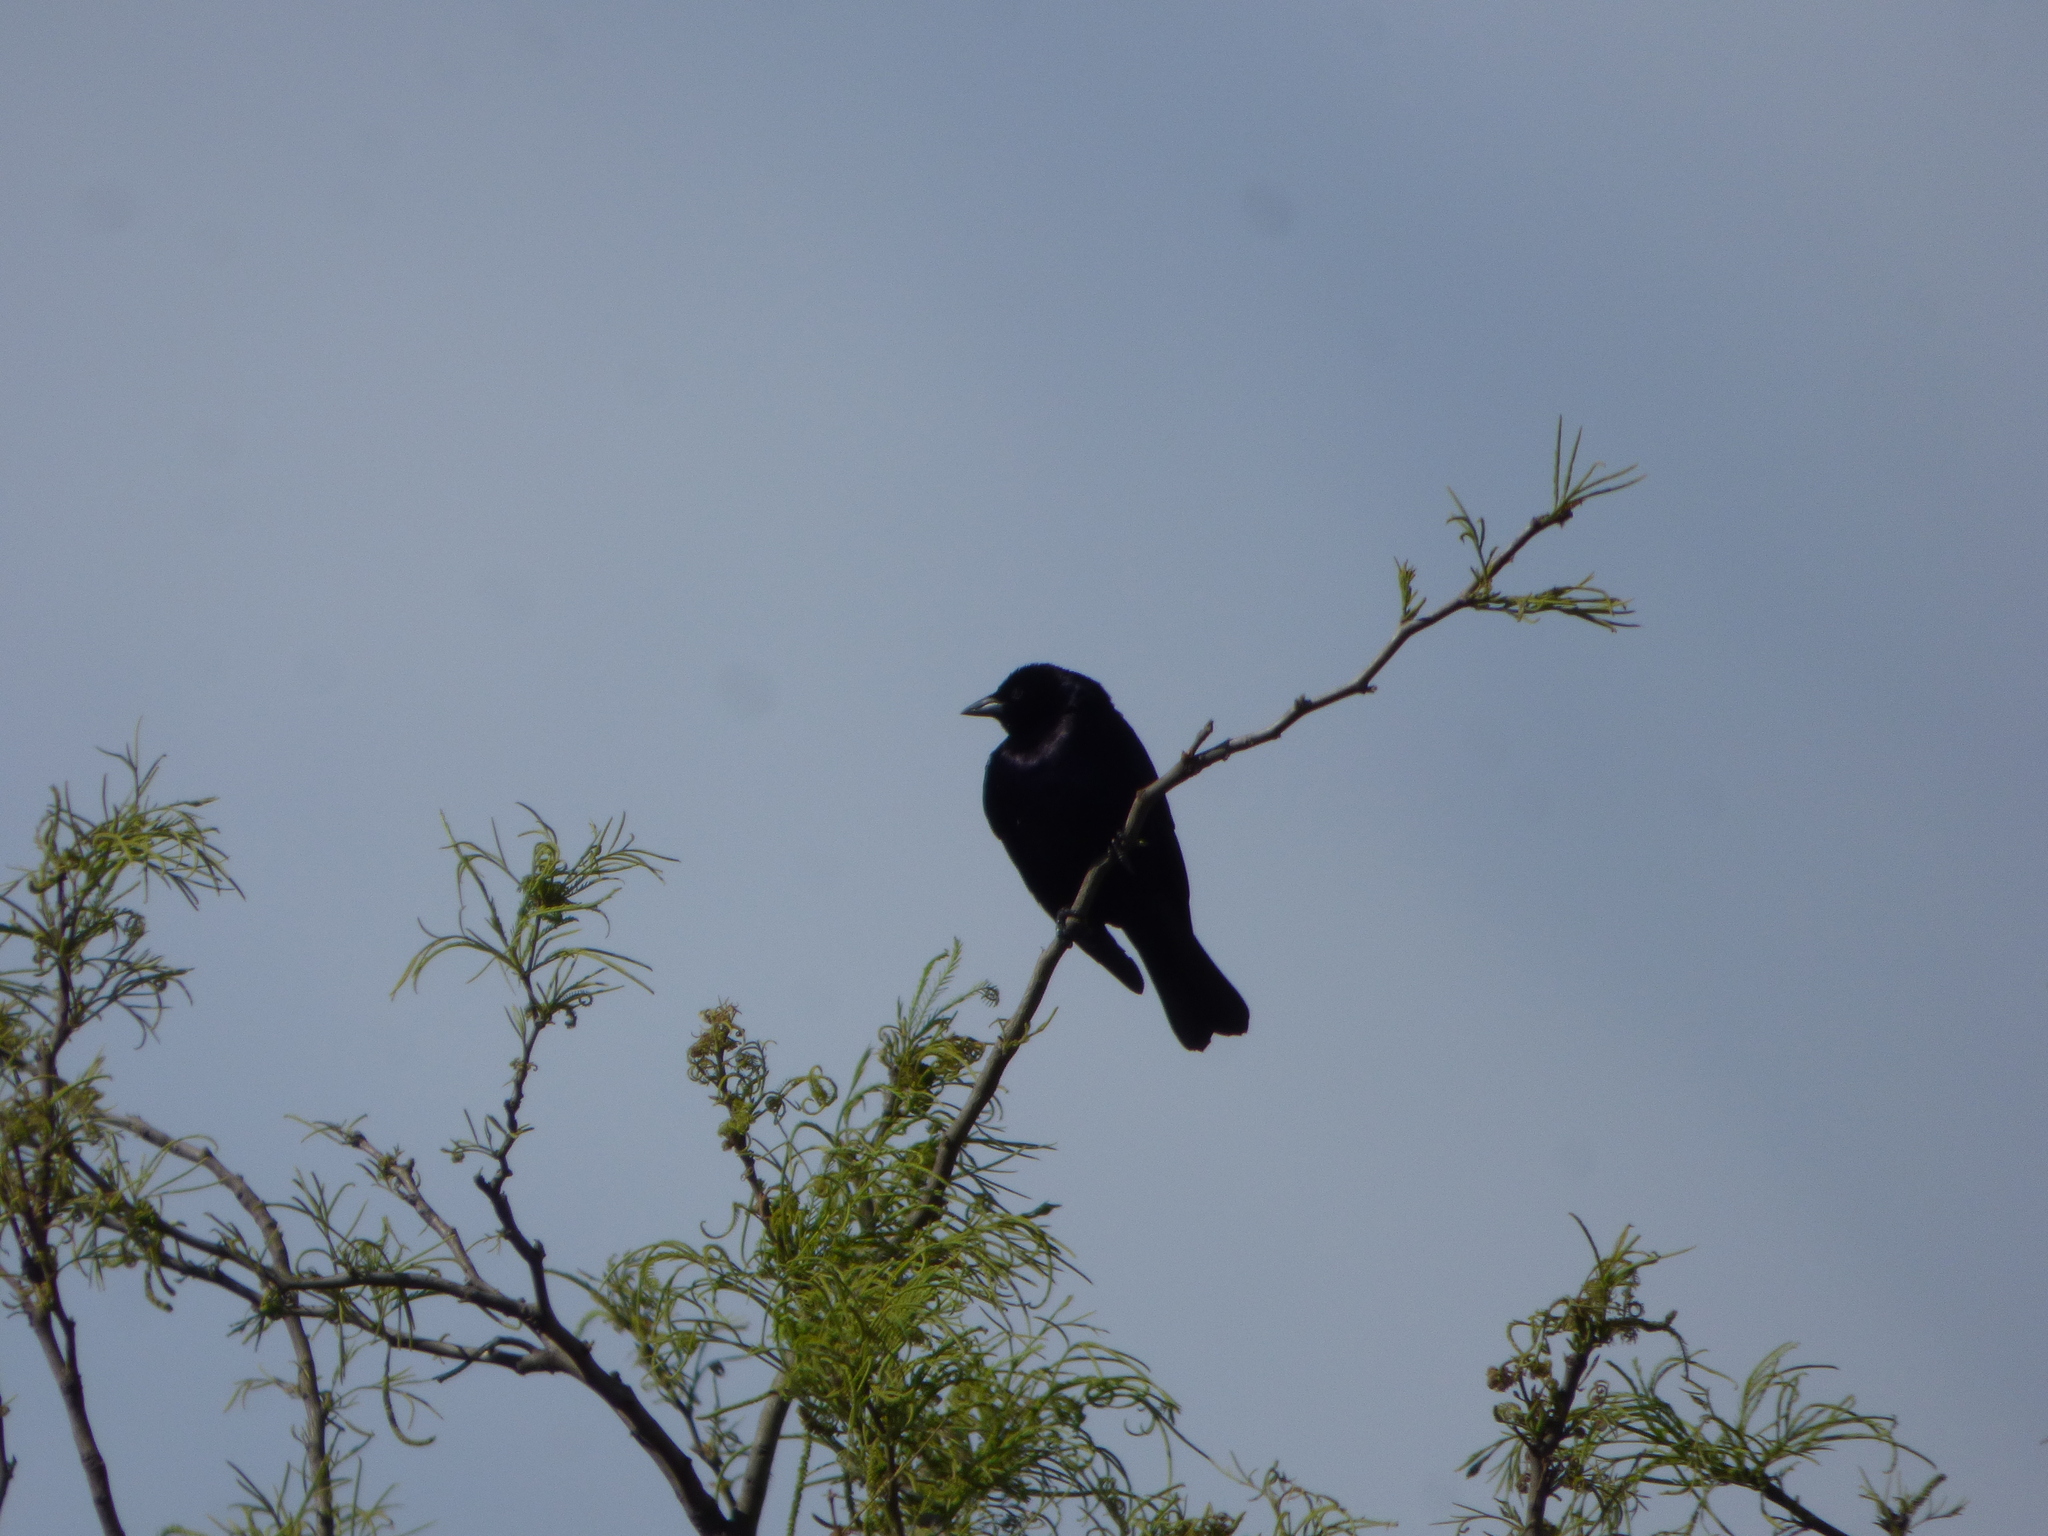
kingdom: Animalia
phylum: Chordata
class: Aves
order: Passeriformes
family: Icteridae
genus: Molothrus
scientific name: Molothrus bonariensis
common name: Shiny cowbird
